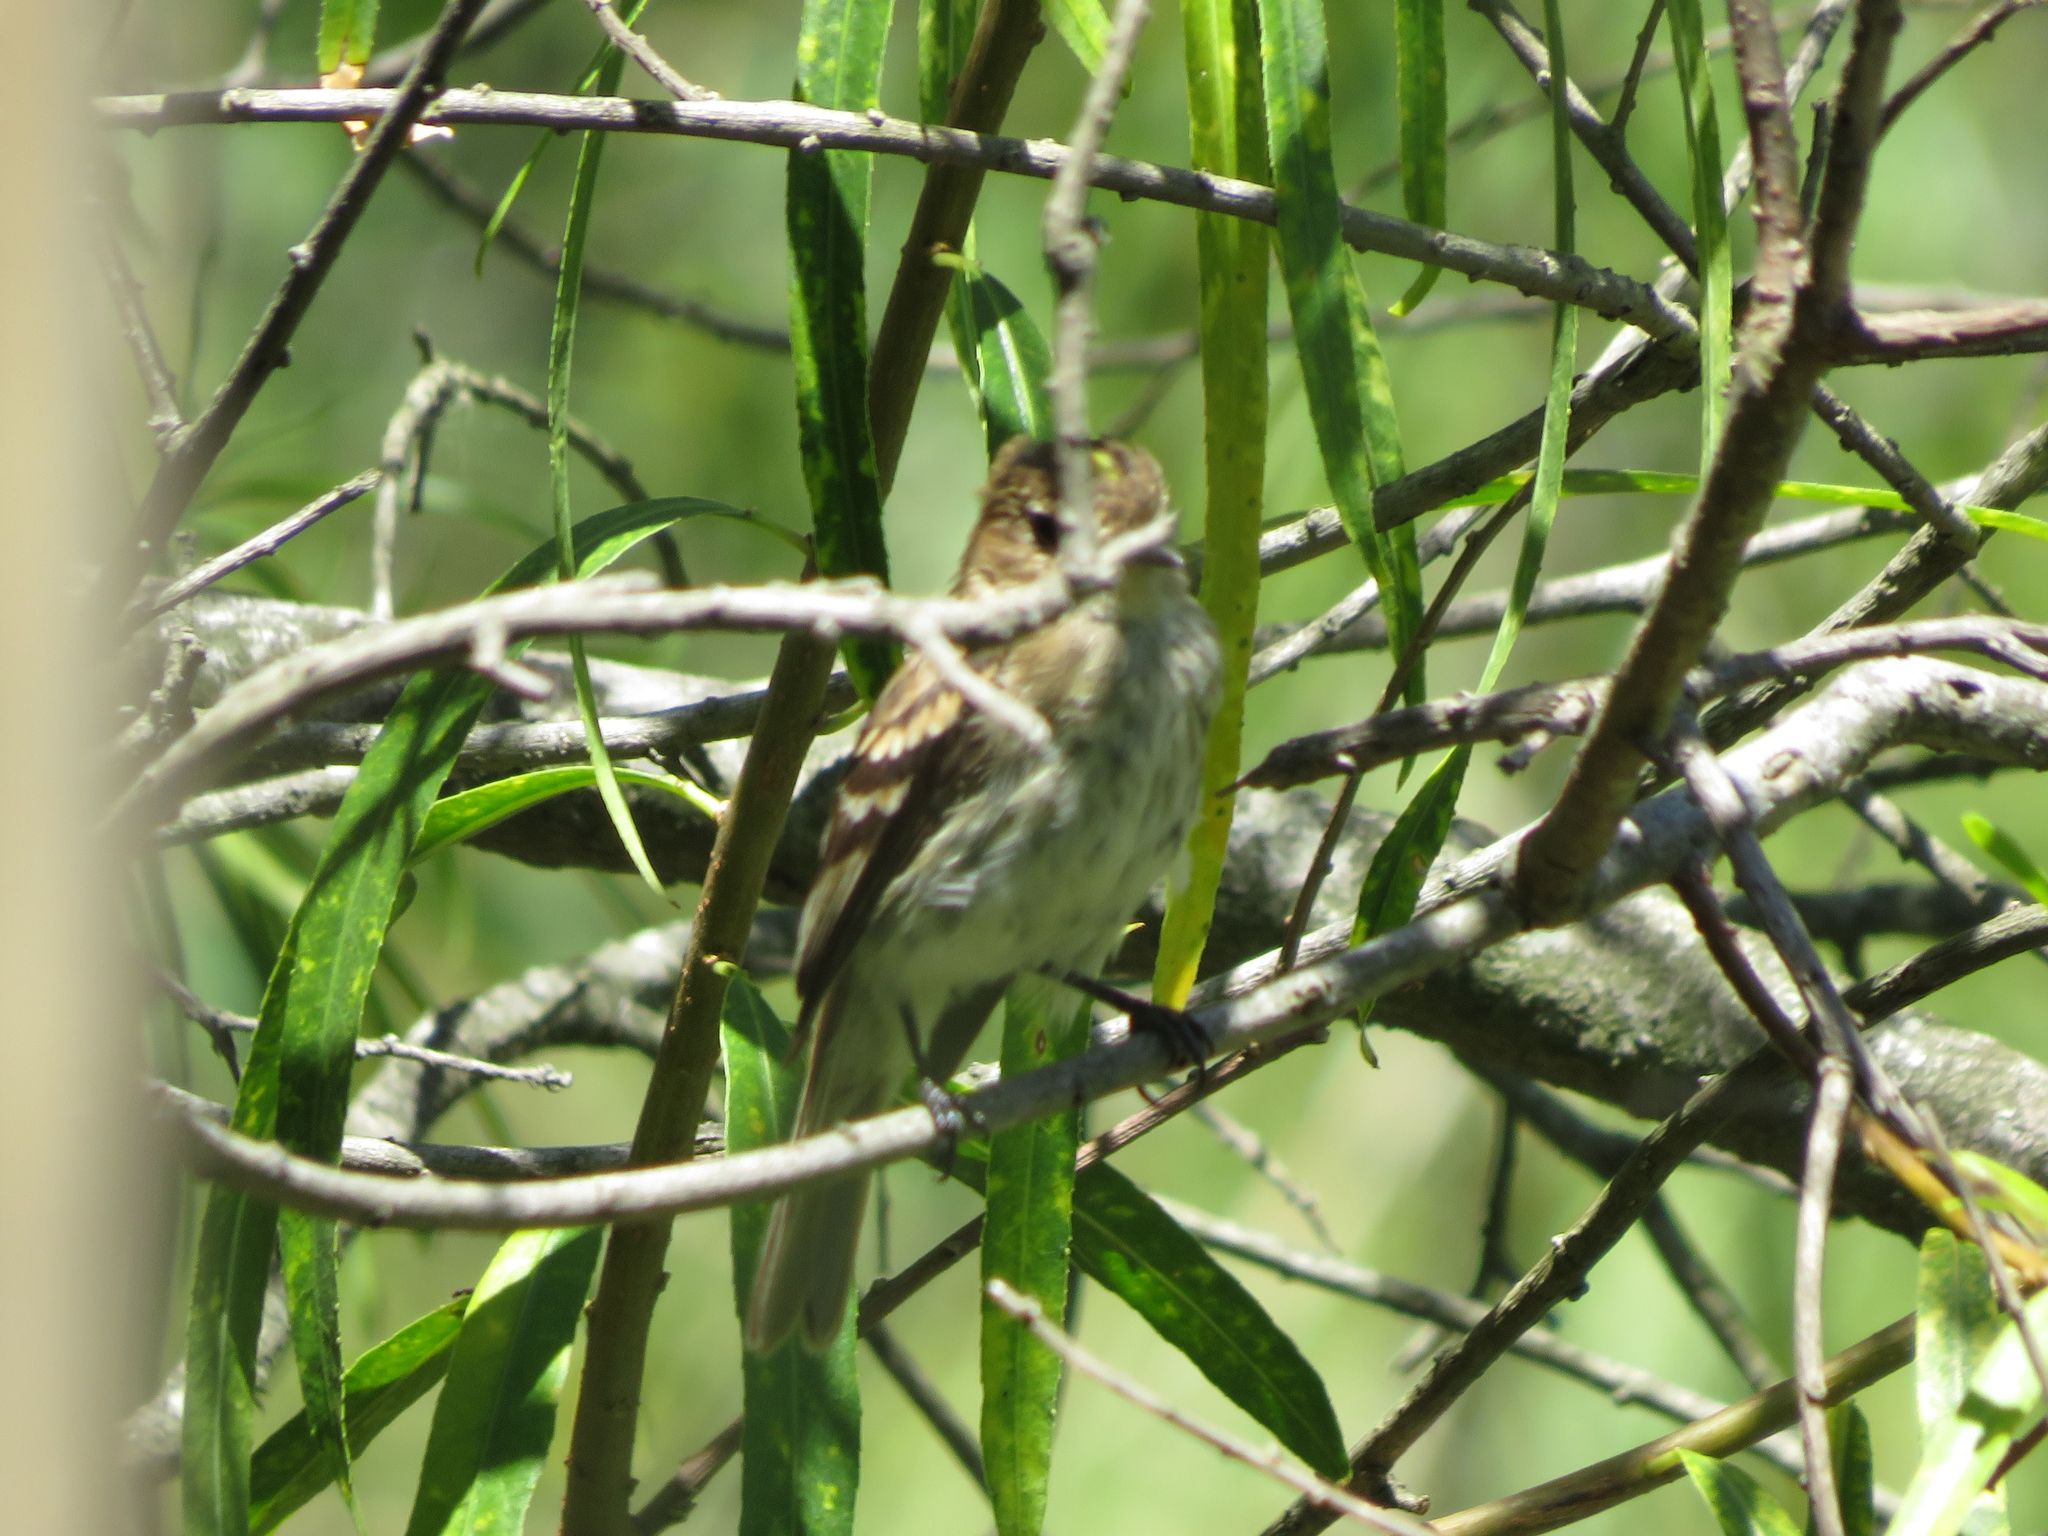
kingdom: Animalia
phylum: Chordata
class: Aves
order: Passeriformes
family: Tyrannidae
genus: Myiophobus
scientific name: Myiophobus fasciatus
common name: Bran-colored flycatcher
